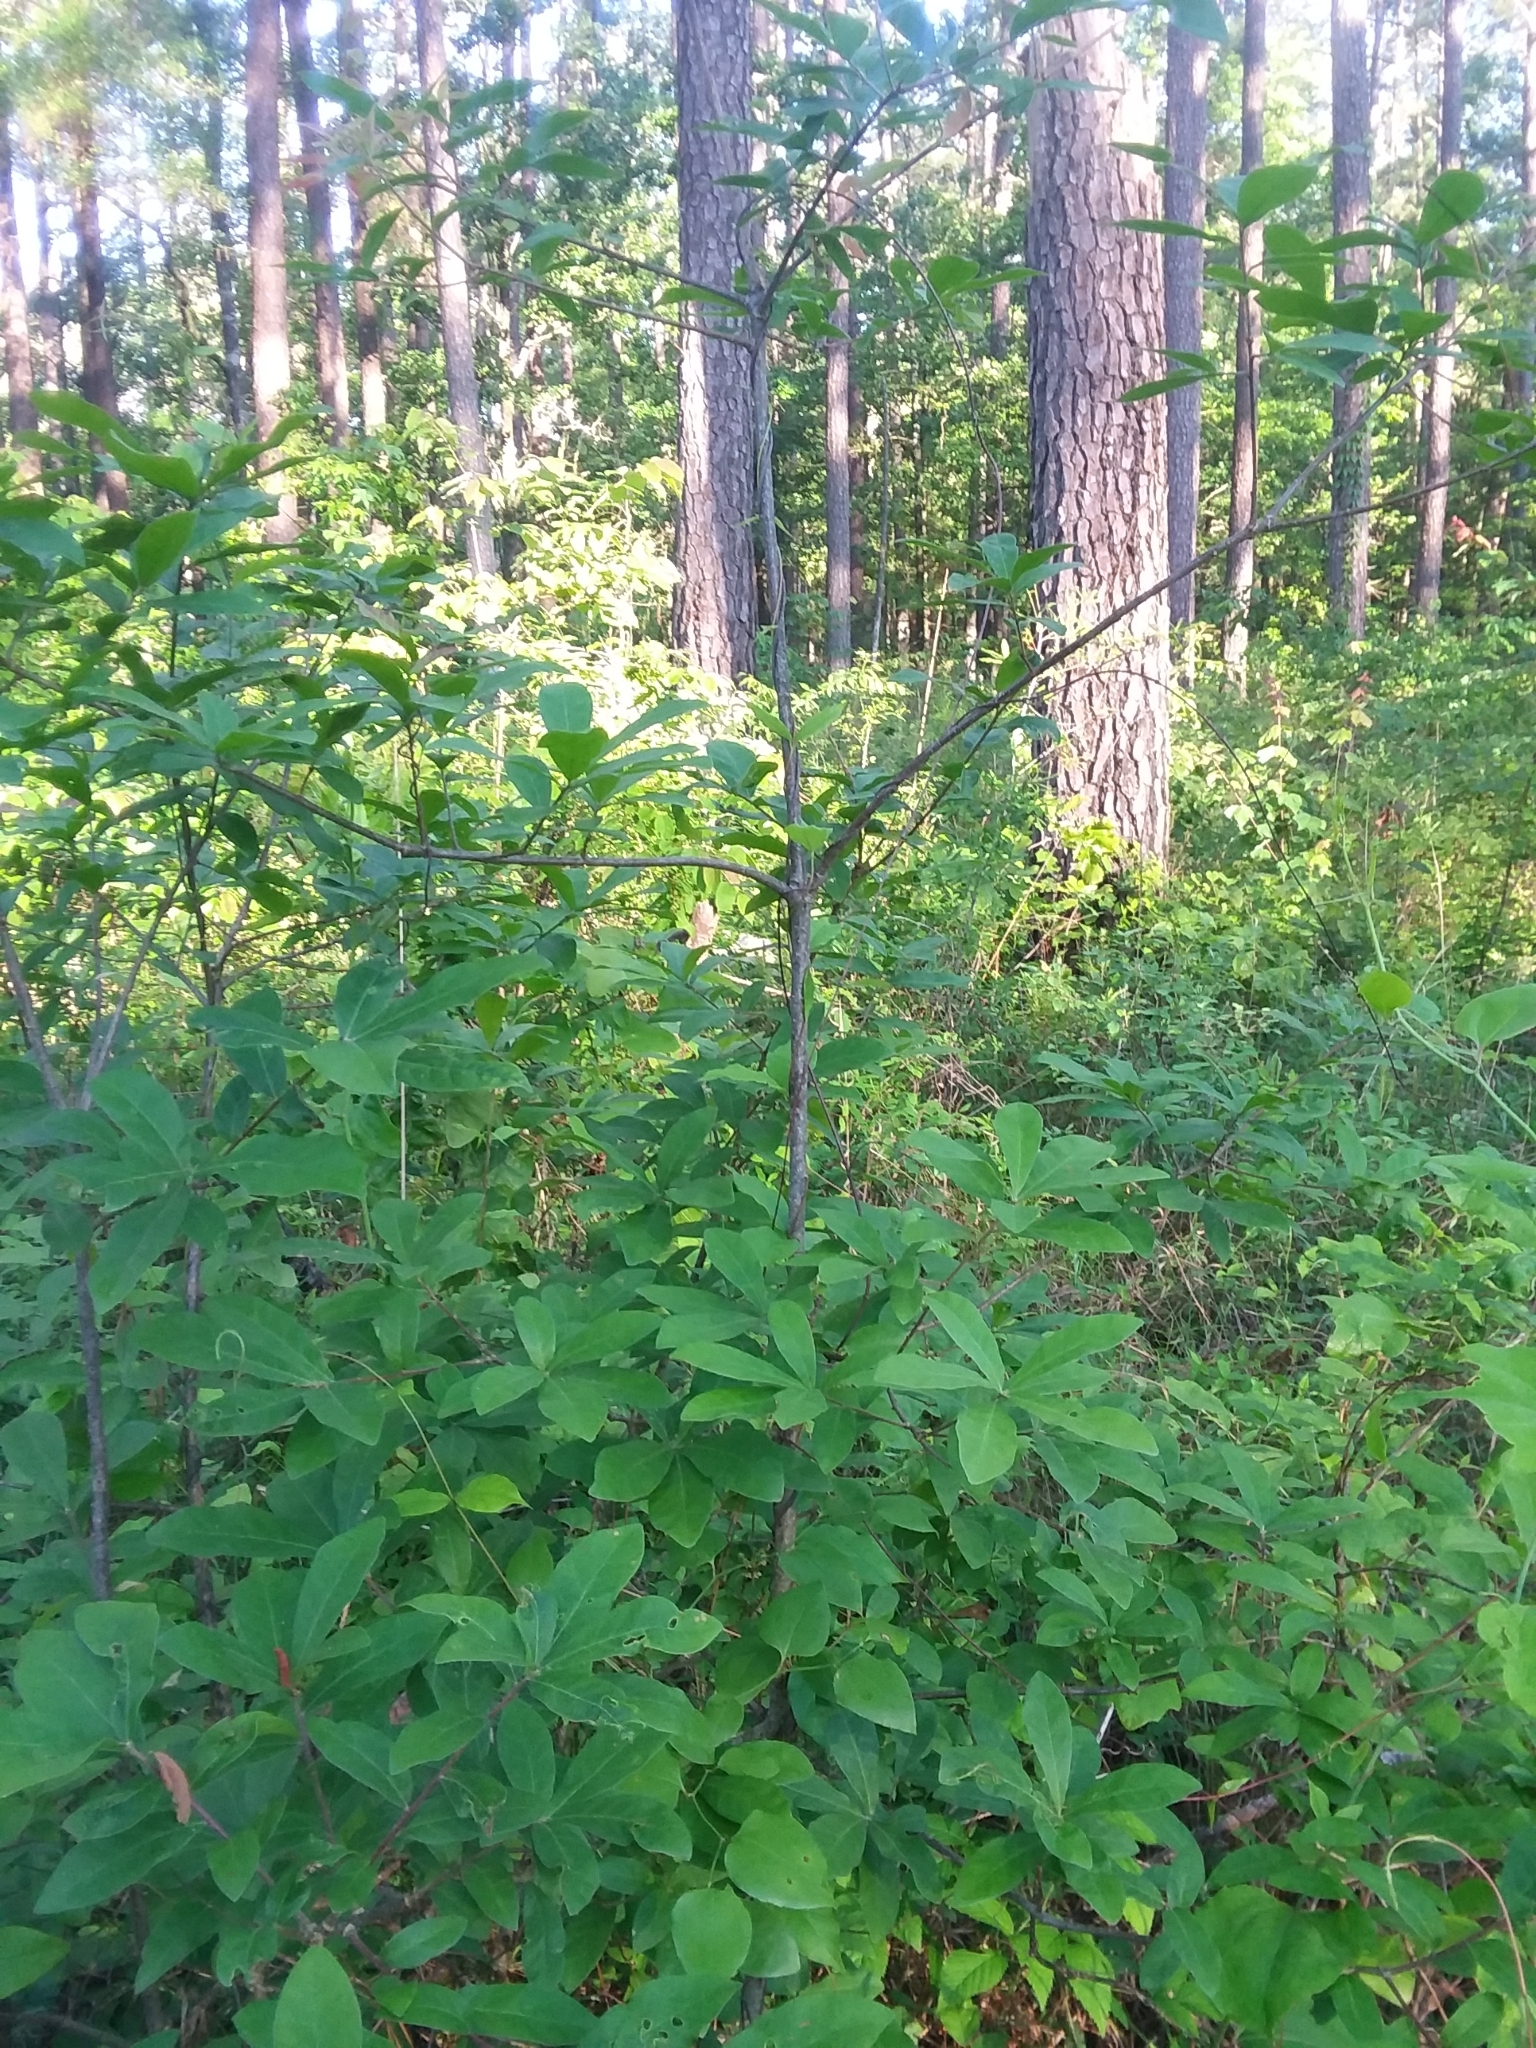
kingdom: Plantae
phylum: Tracheophyta
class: Magnoliopsida
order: Fagales
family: Fagaceae
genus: Quercus
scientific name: Quercus oglethorpensis
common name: Oglethorpe oak
